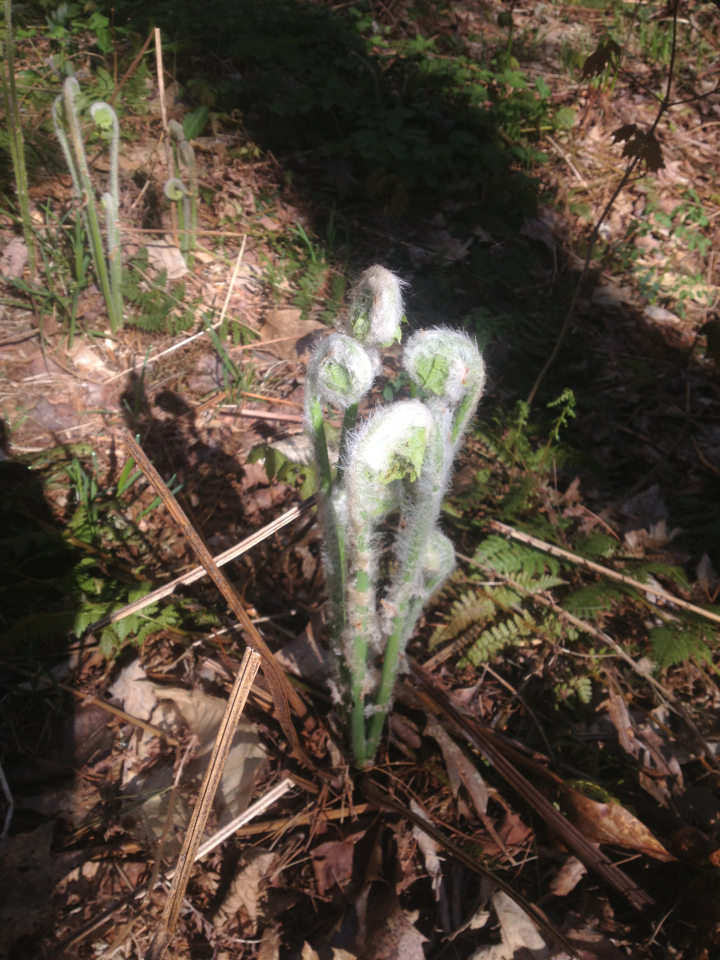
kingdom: Plantae
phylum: Tracheophyta
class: Polypodiopsida
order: Osmundales
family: Osmundaceae
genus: Osmundastrum
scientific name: Osmundastrum cinnamomeum
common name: Cinnamon fern
